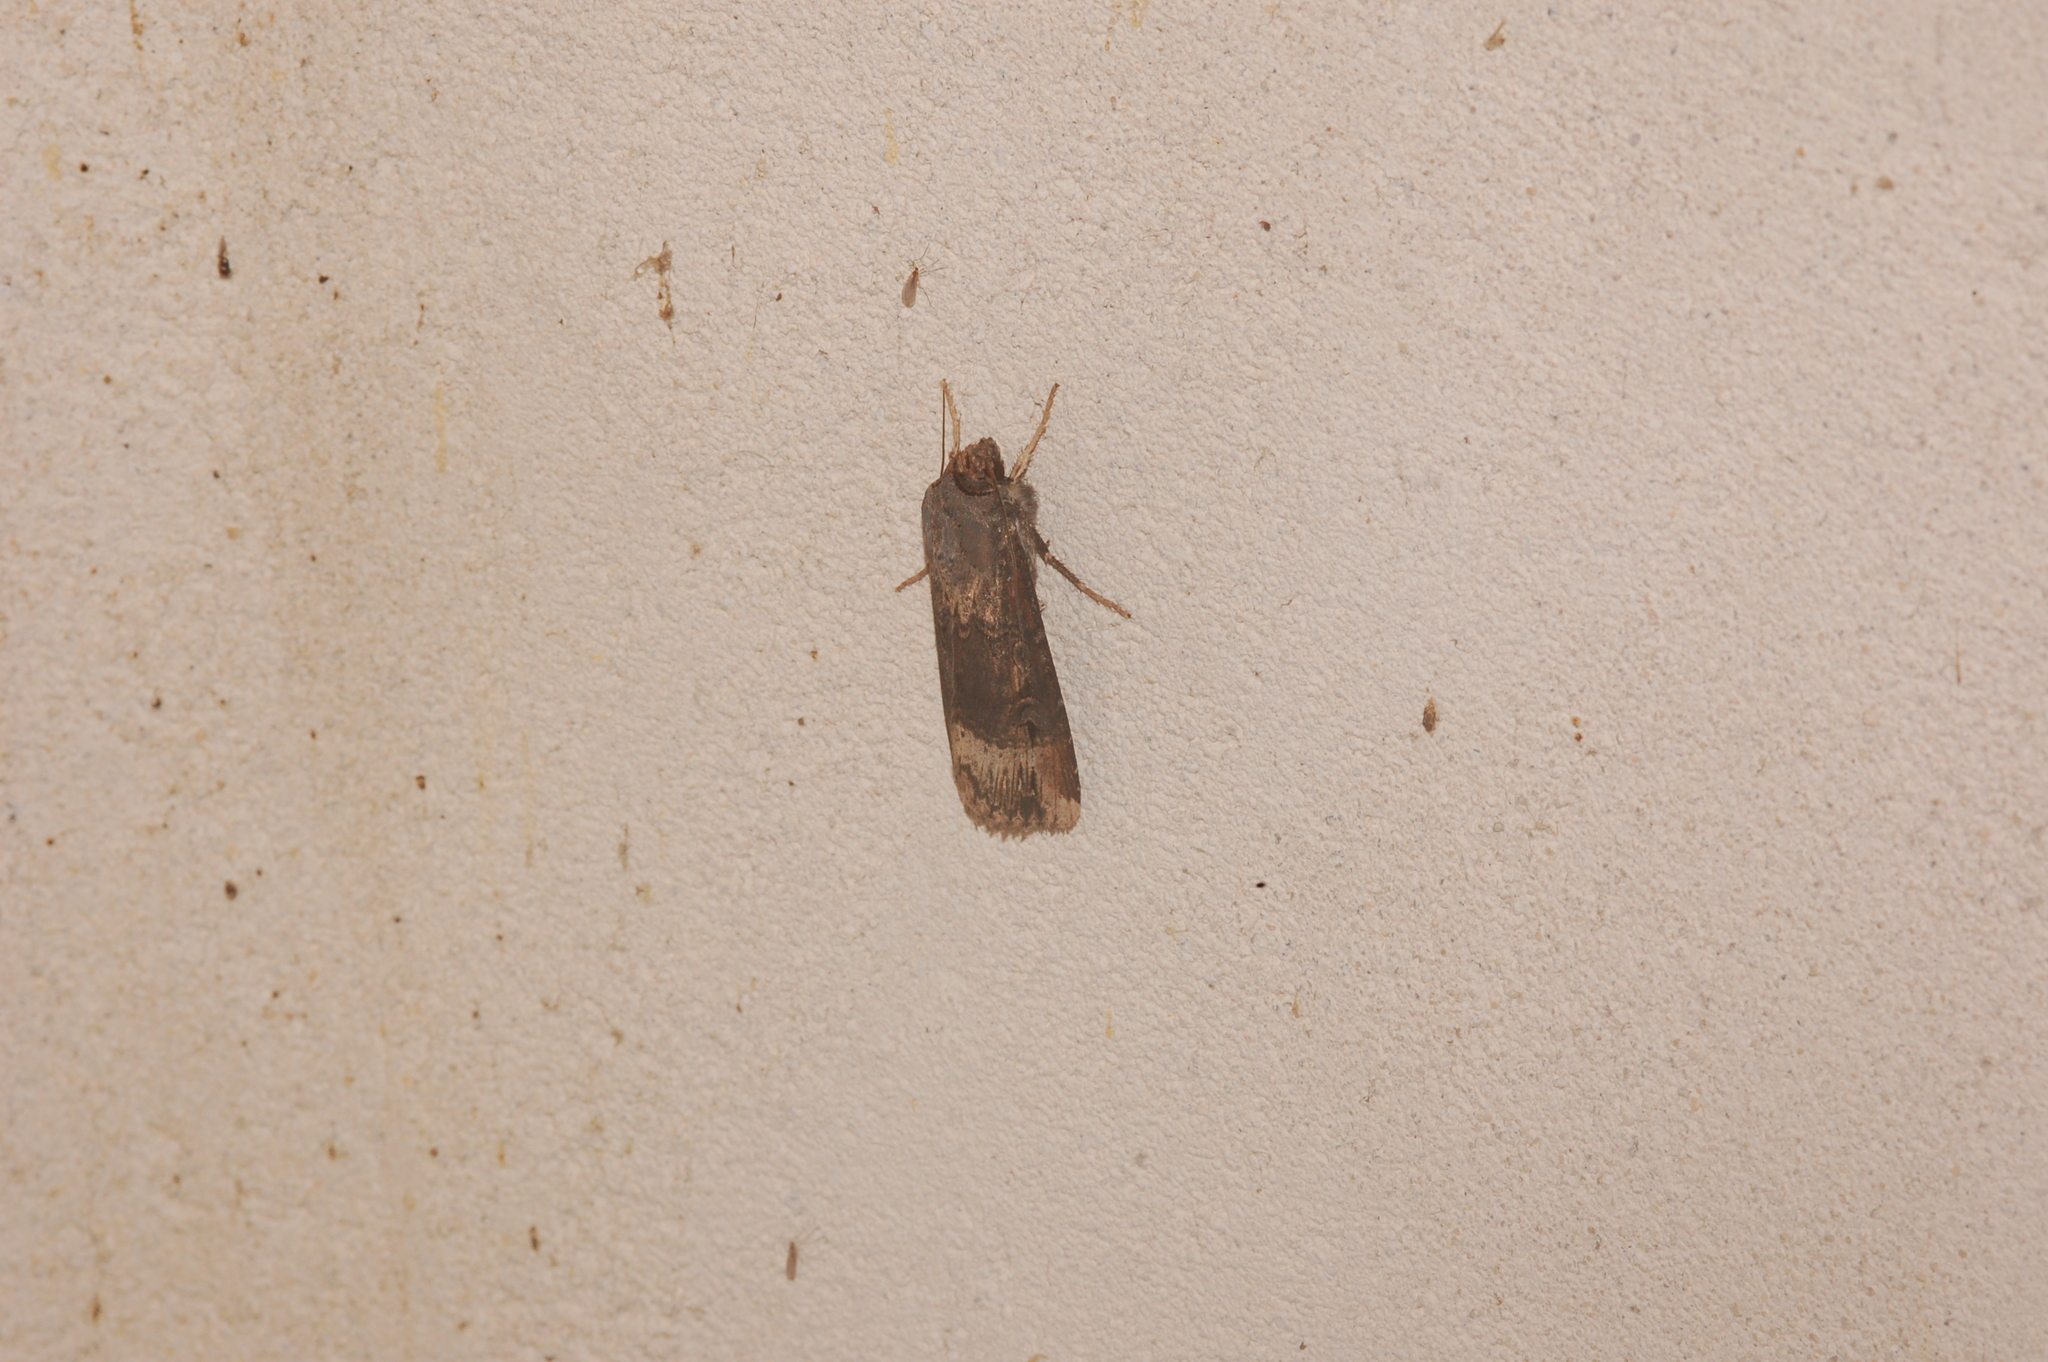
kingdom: Animalia
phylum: Arthropoda
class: Insecta
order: Lepidoptera
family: Noctuidae
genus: Agrotis
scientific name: Agrotis ipsilon
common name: Dark sword-grass
